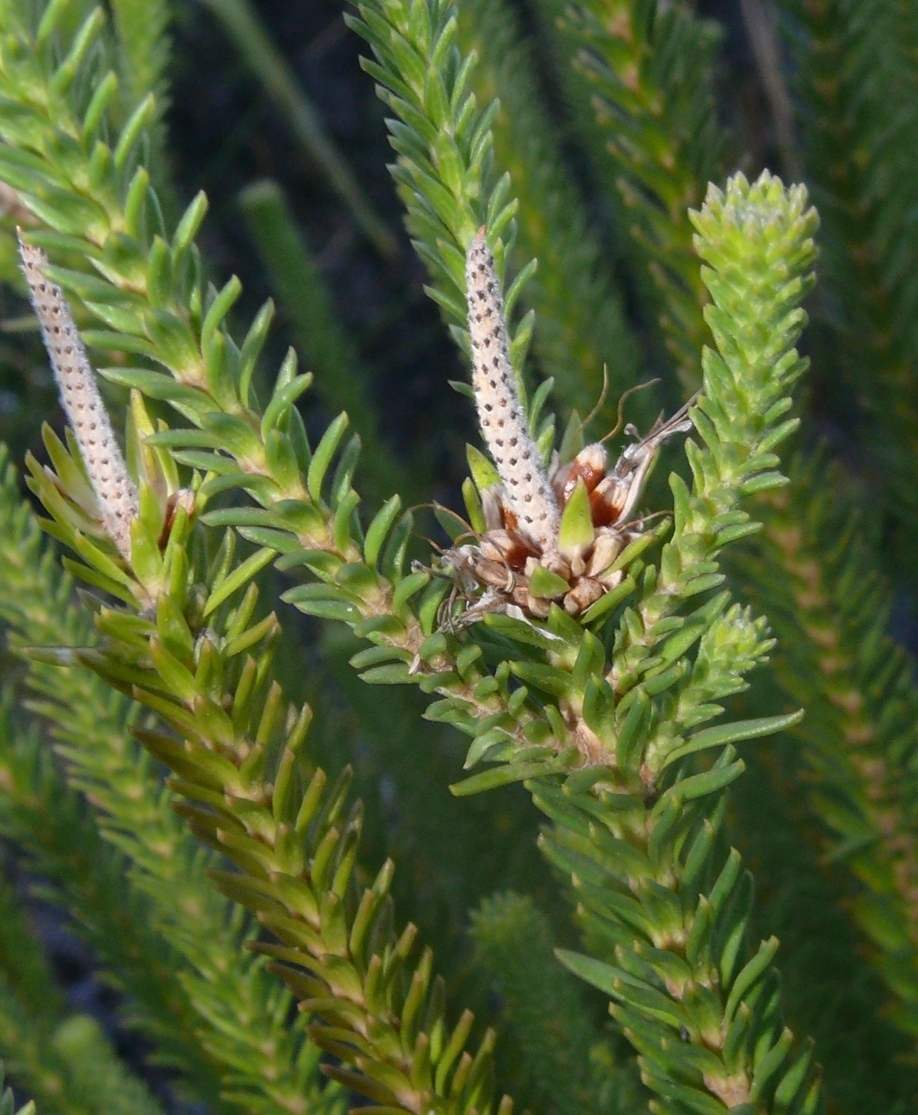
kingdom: Plantae
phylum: Tracheophyta
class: Magnoliopsida
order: Lamiales
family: Stilbaceae
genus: Stilbe
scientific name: Stilbe vestita
